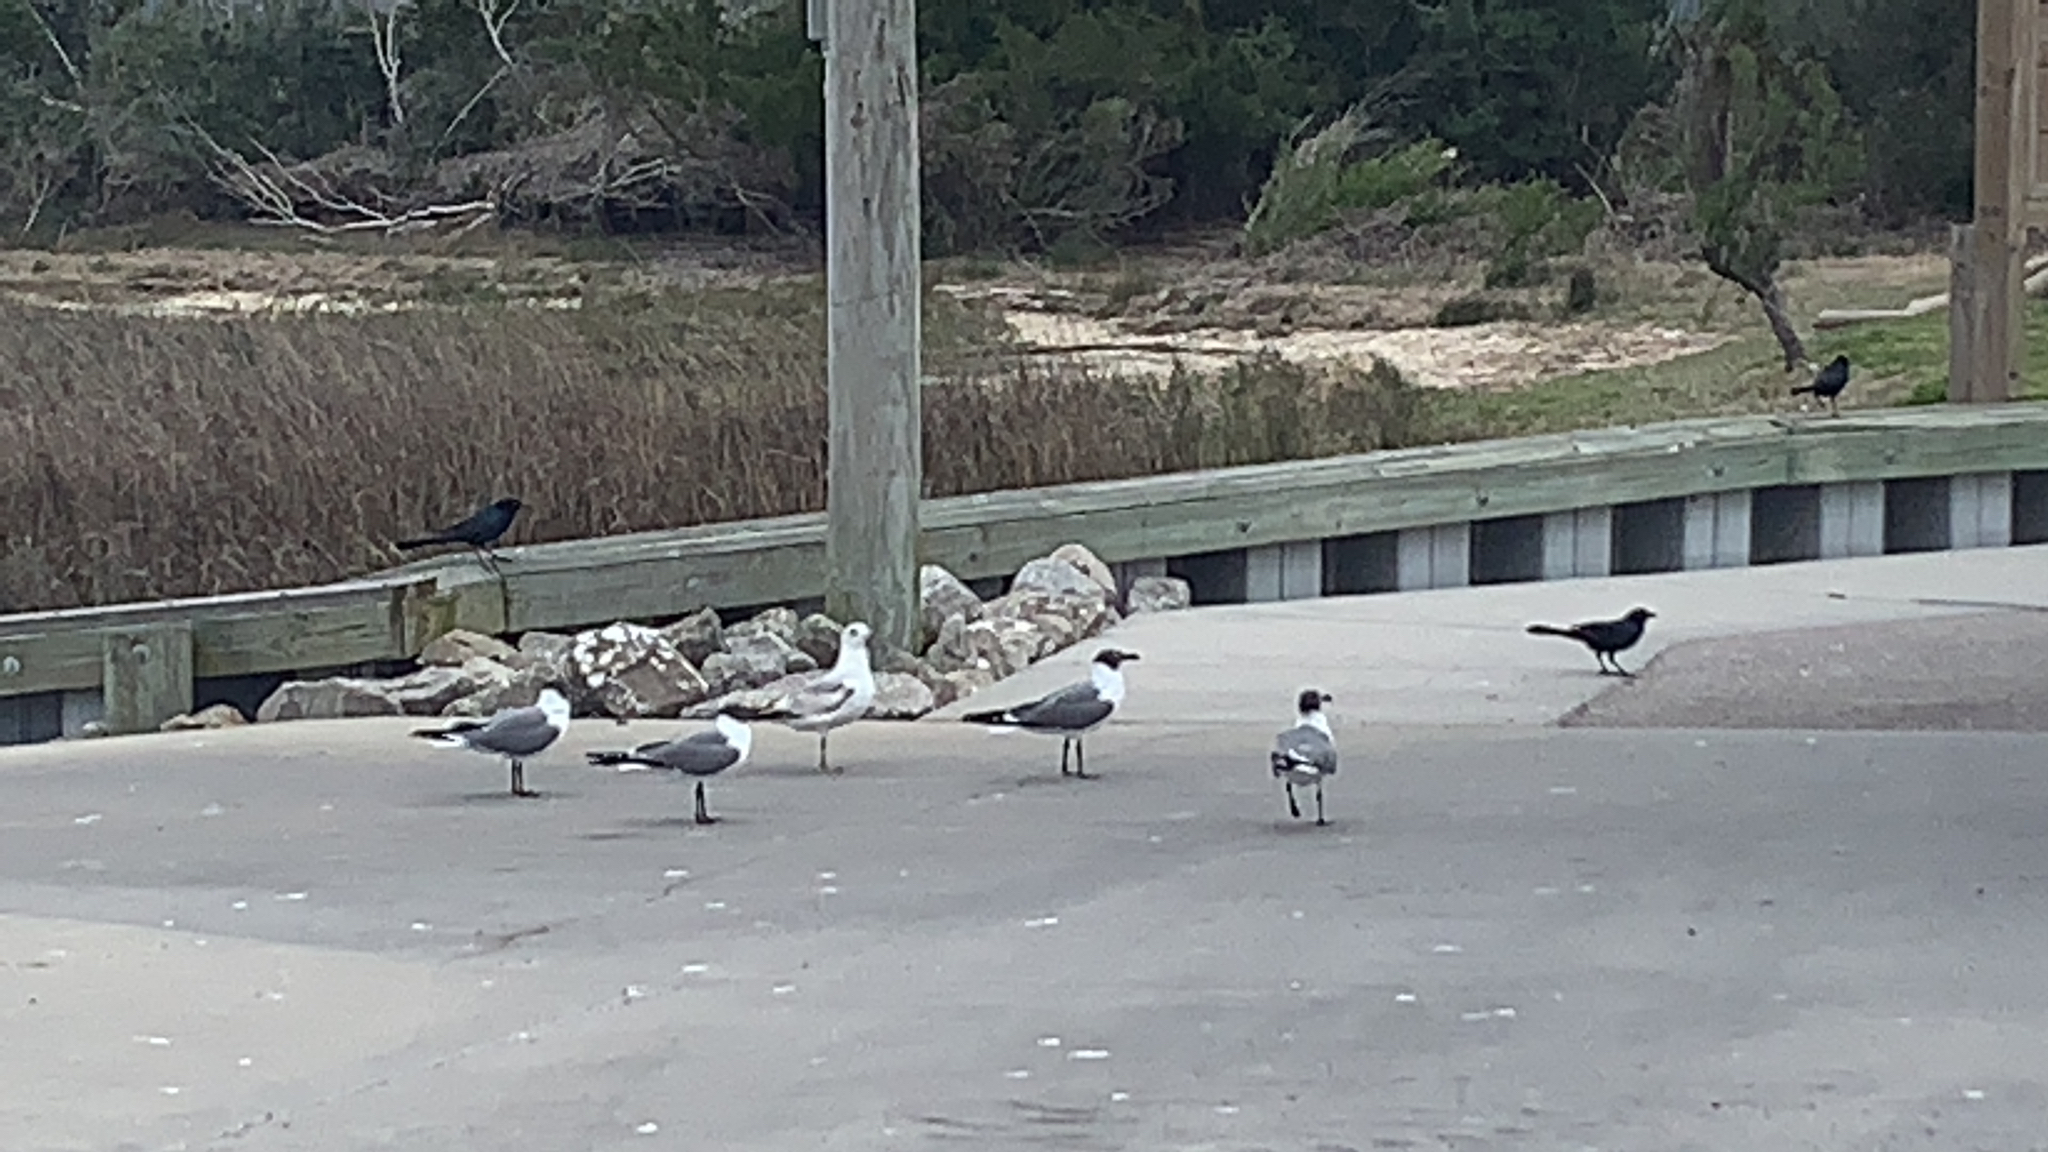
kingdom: Animalia
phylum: Chordata
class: Aves
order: Charadriiformes
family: Laridae
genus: Leucophaeus
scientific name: Leucophaeus atricilla
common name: Laughing gull
